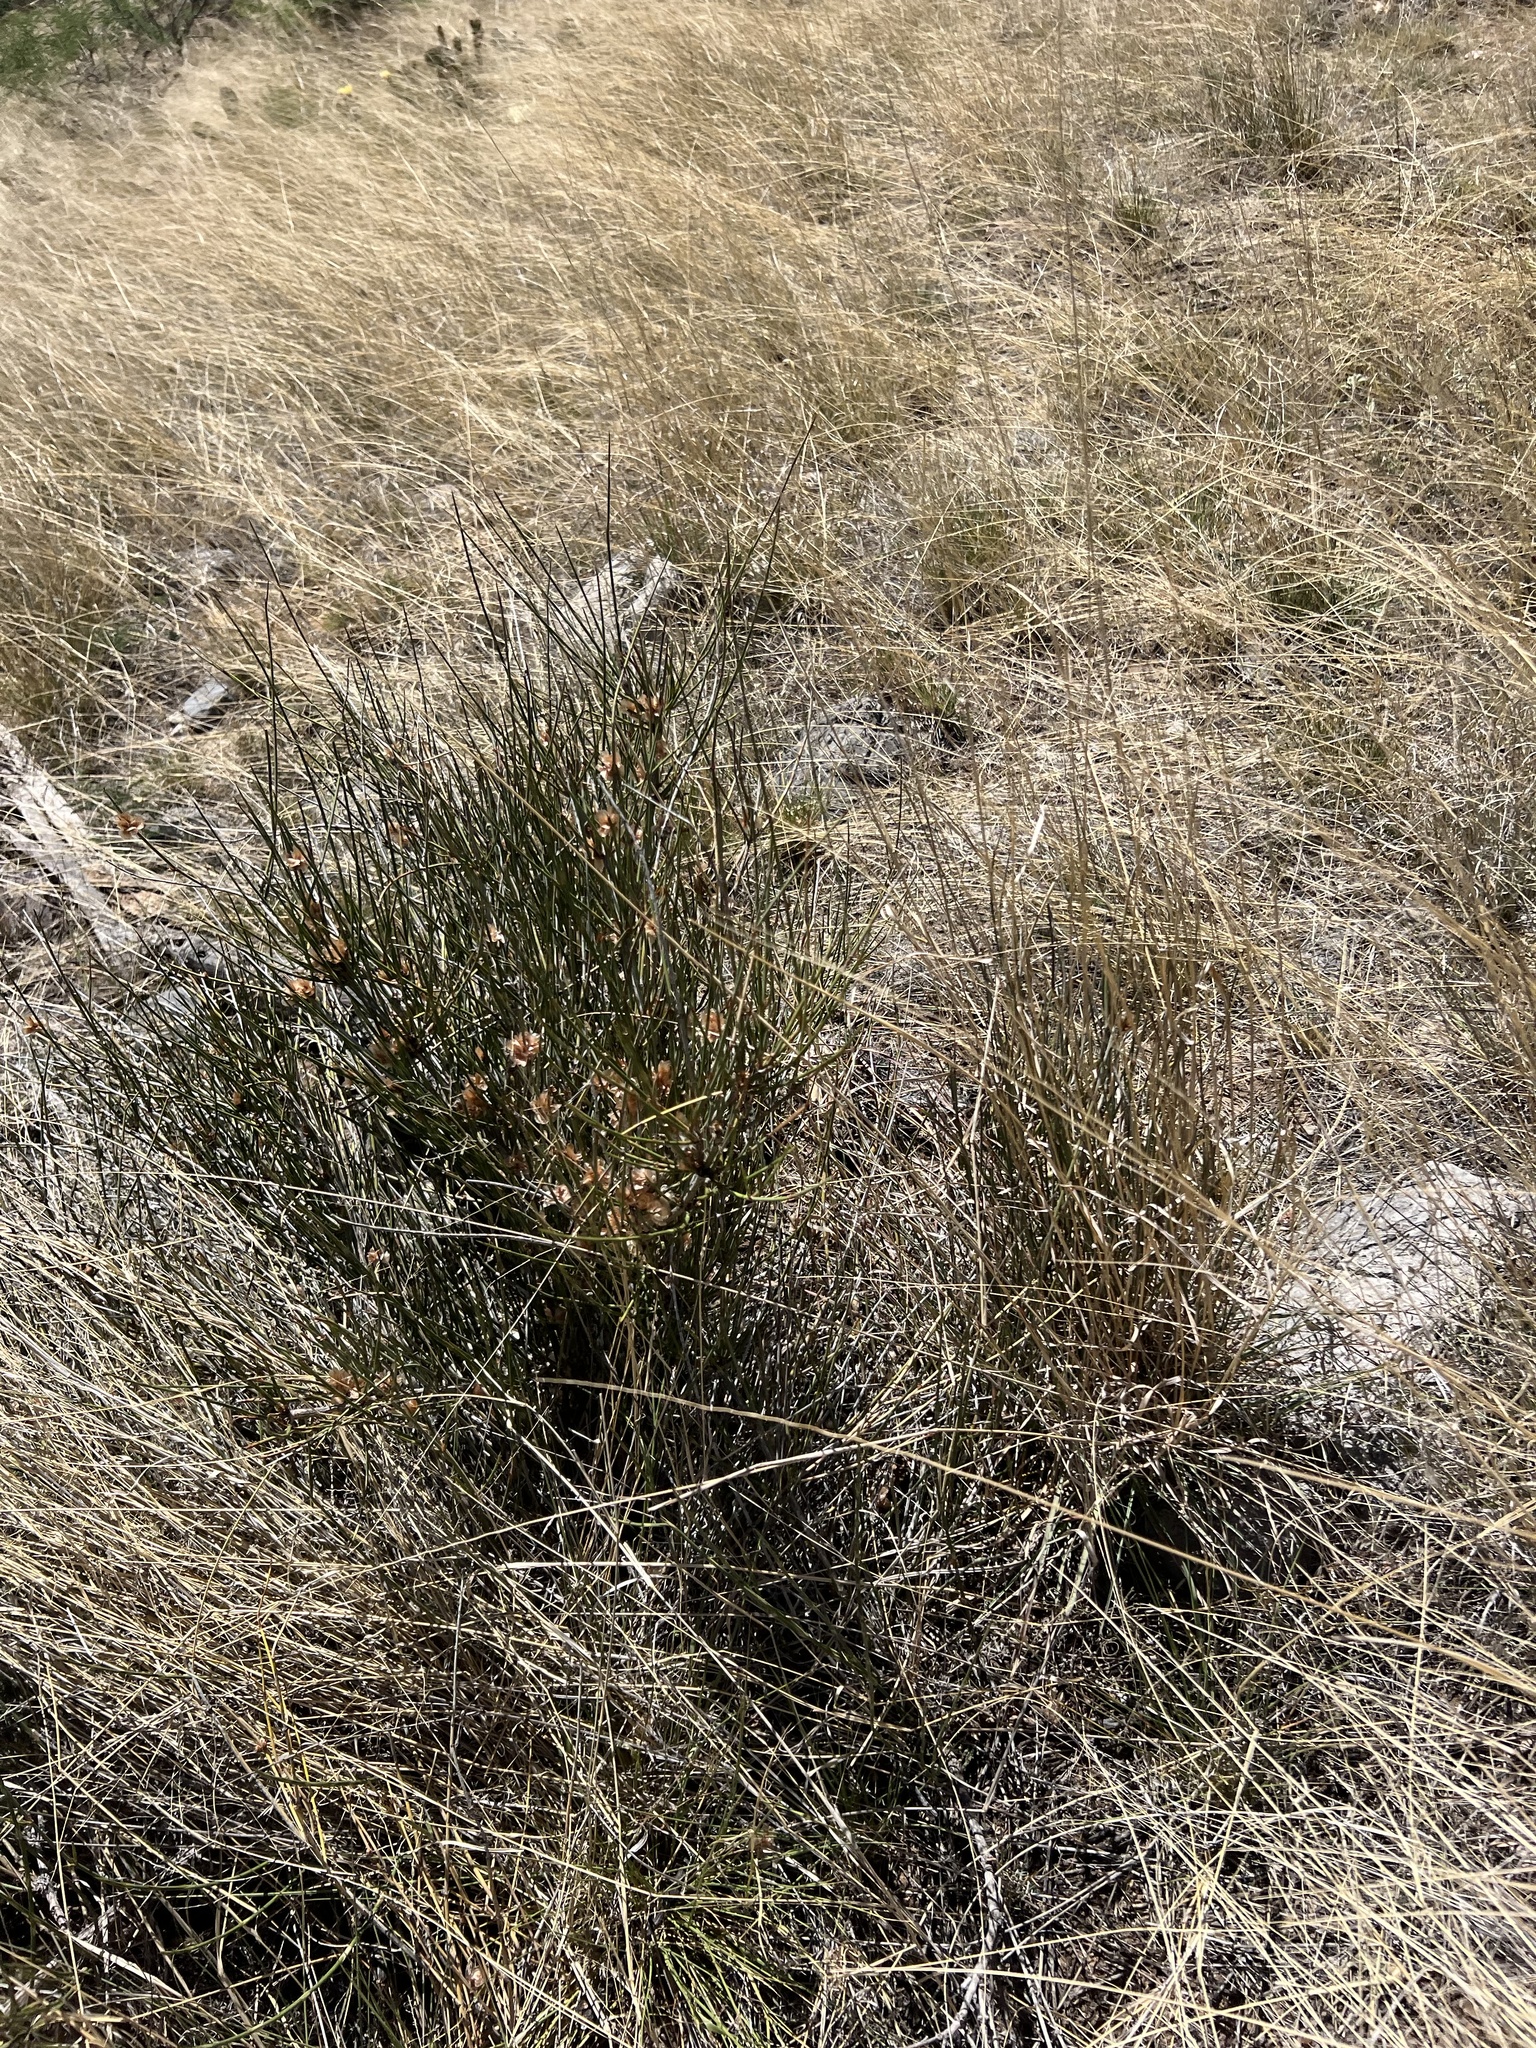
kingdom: Plantae
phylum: Tracheophyta
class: Gnetopsida
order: Ephedrales
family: Ephedraceae
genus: Ephedra
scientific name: Ephedra trifurca
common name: Mexican-tea
